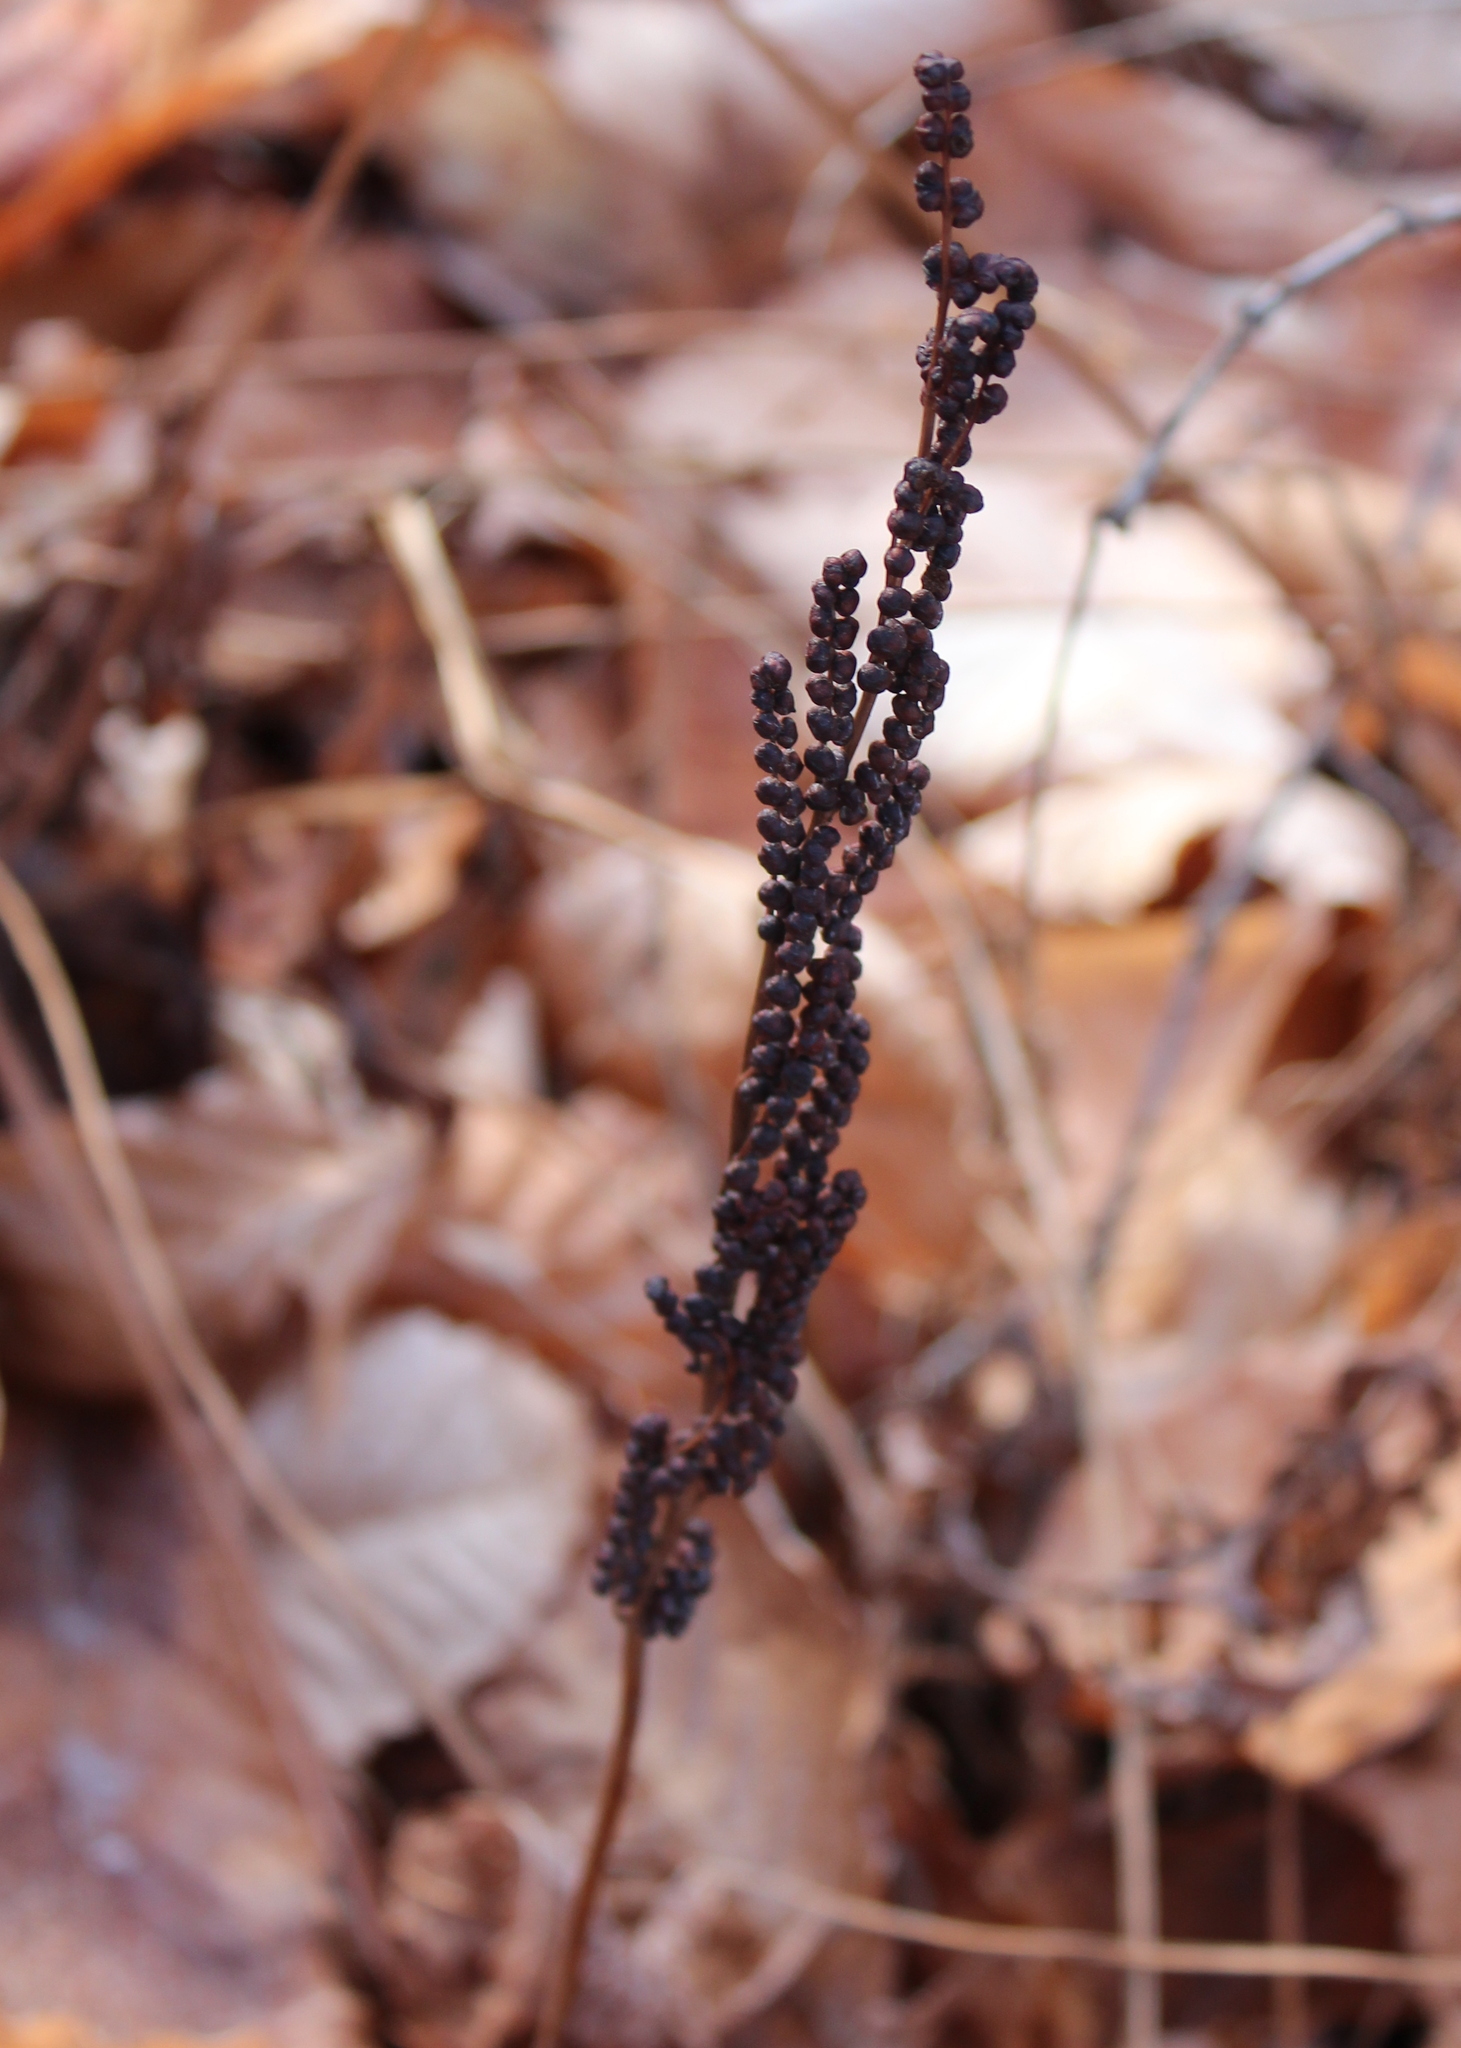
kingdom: Plantae
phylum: Tracheophyta
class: Polypodiopsida
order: Polypodiales
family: Onocleaceae
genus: Onoclea
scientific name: Onoclea sensibilis
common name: Sensitive fern
